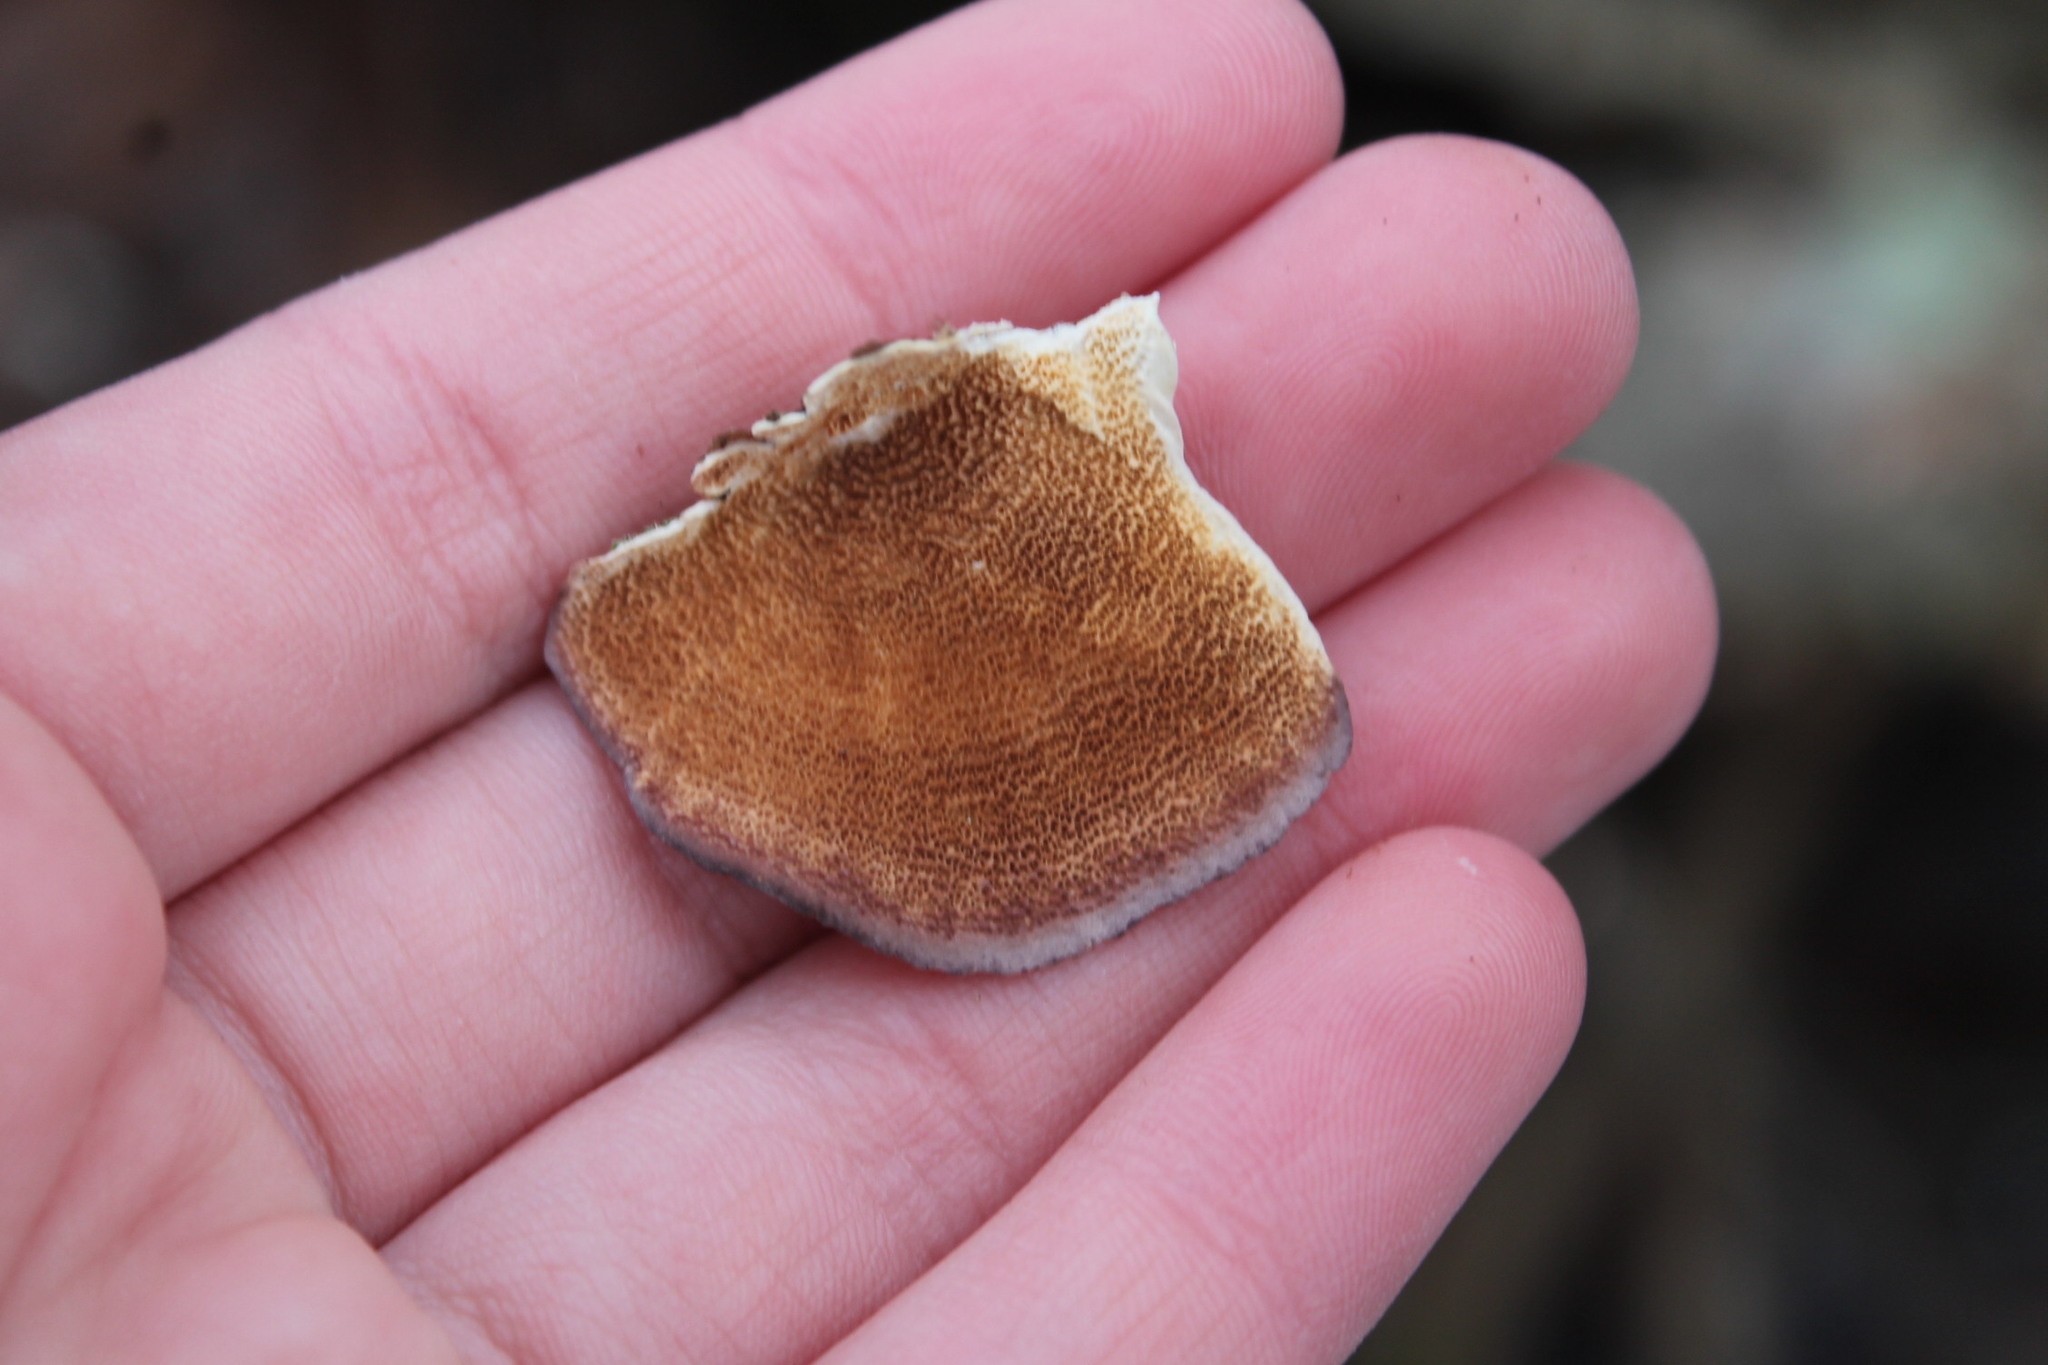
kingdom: Fungi
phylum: Basidiomycota
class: Agaricomycetes
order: Hymenochaetales
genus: Trichaptum
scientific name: Trichaptum biforme
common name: Violet-toothed polypore
